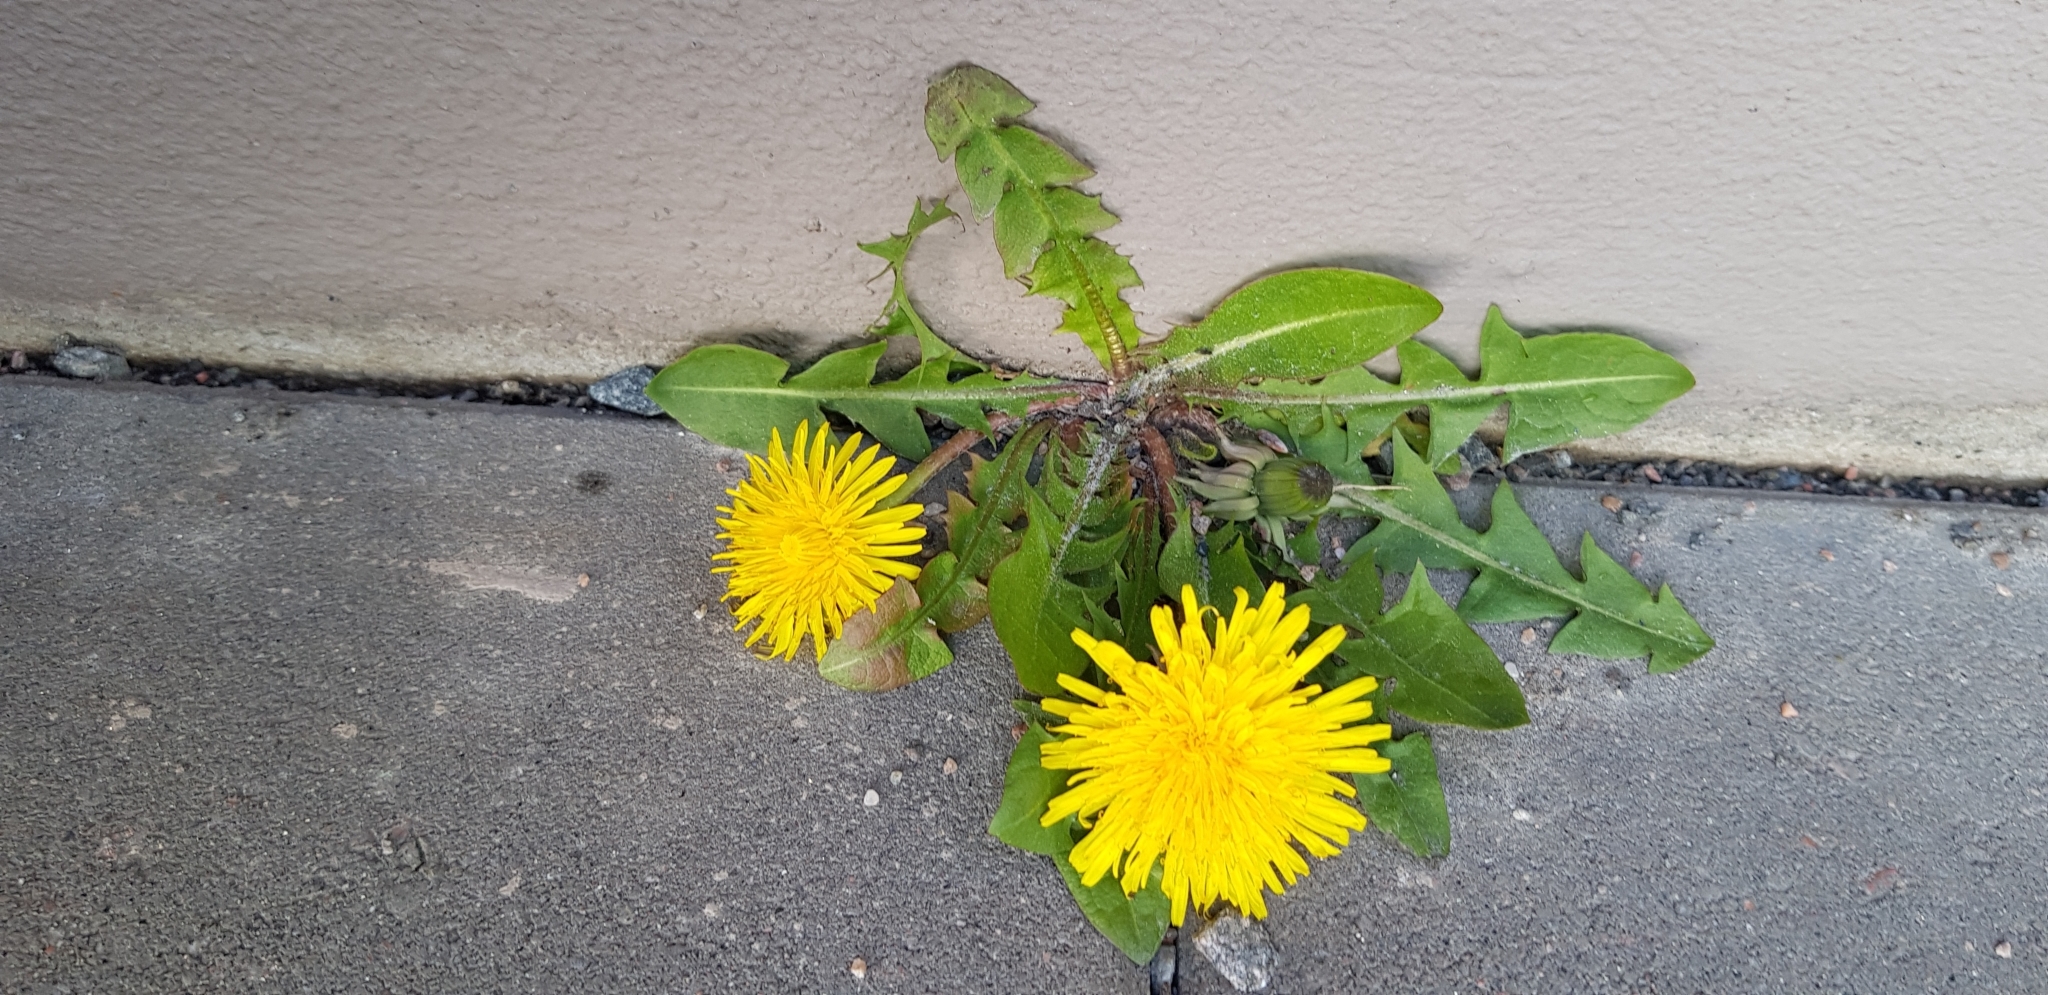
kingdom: Plantae
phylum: Tracheophyta
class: Magnoliopsida
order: Asterales
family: Asteraceae
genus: Taraxacum
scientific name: Taraxacum officinale
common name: Common dandelion
